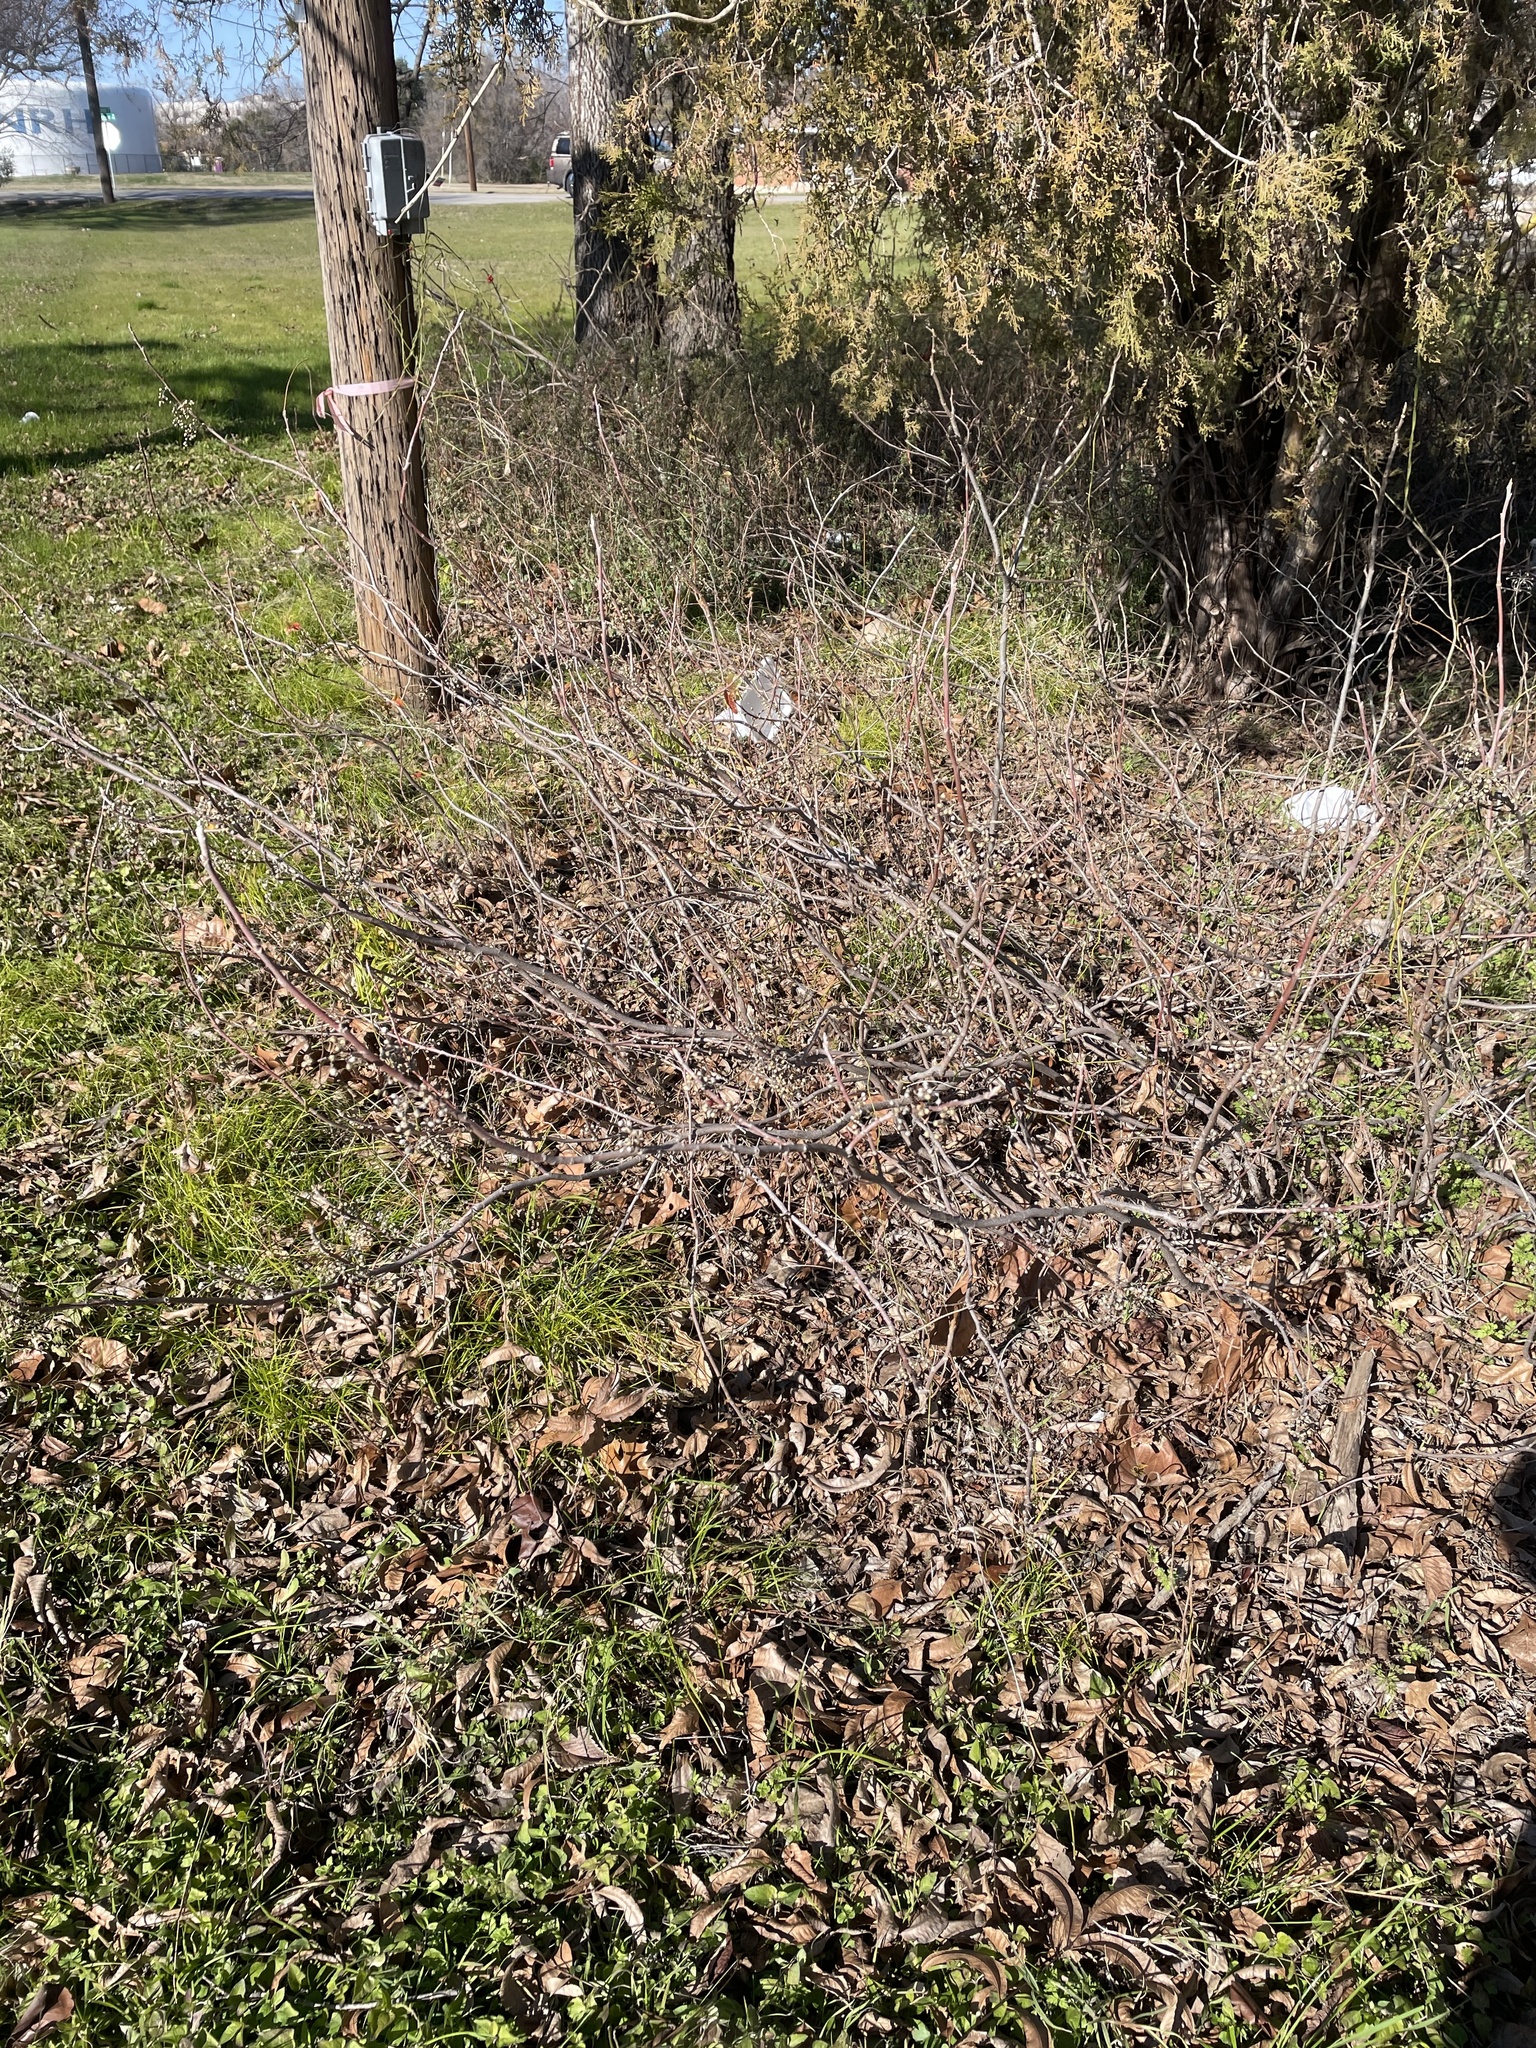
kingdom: Plantae
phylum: Tracheophyta
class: Magnoliopsida
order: Sapindales
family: Anacardiaceae
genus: Toxicodendron
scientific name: Toxicodendron radicans
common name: Poison ivy
